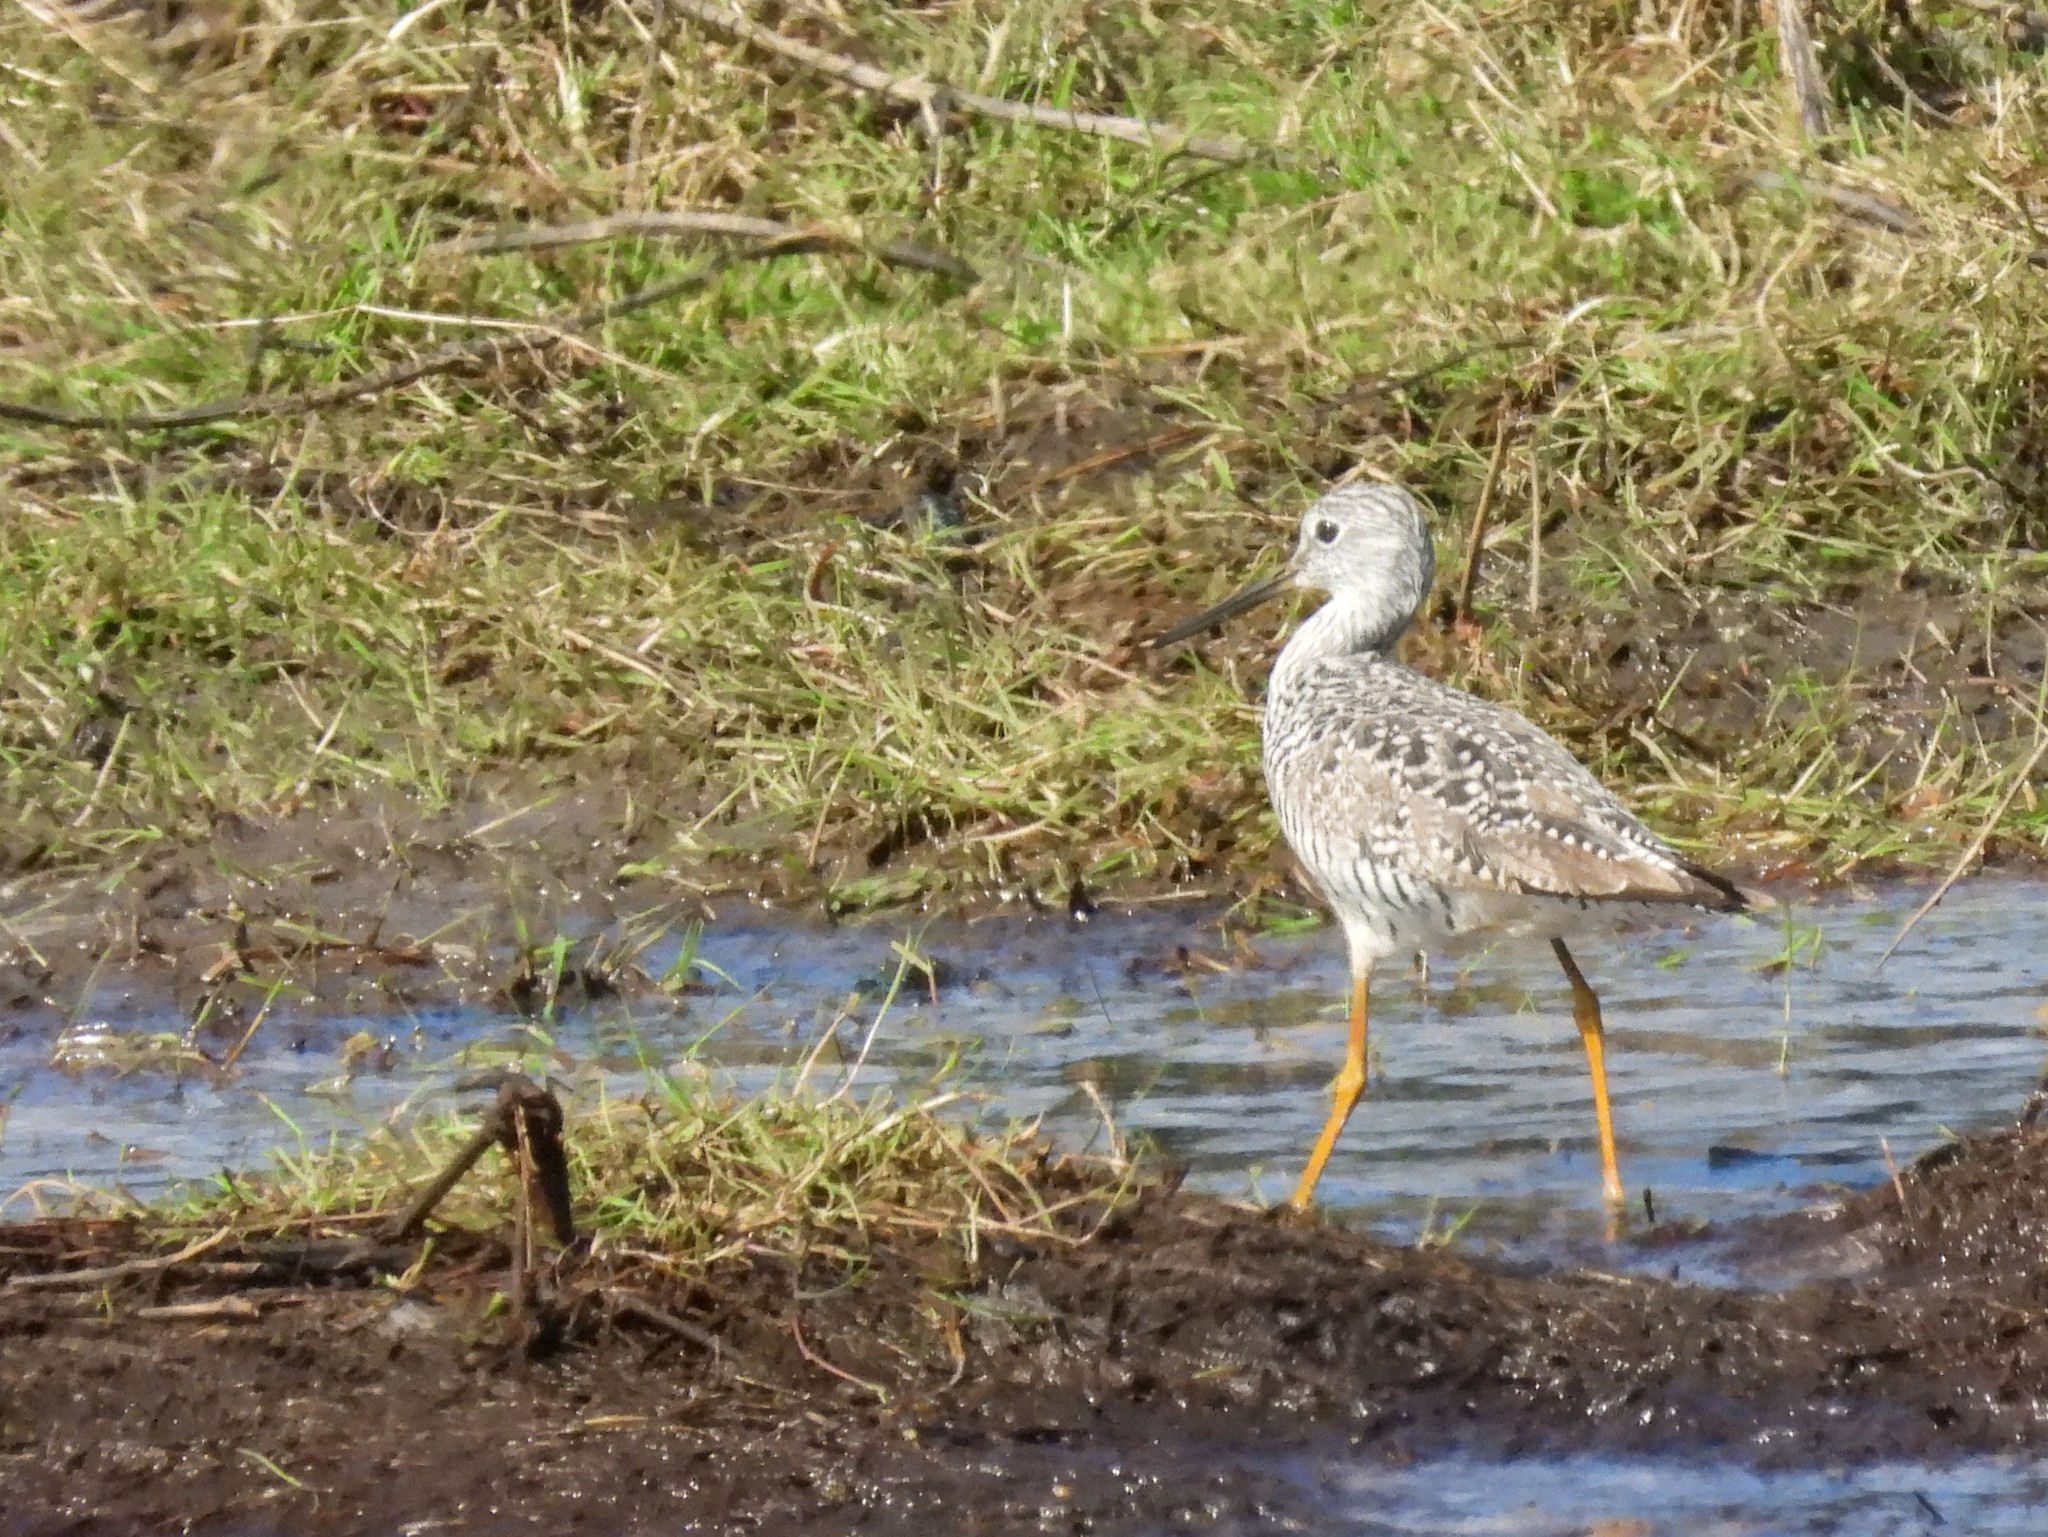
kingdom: Animalia
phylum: Chordata
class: Aves
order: Charadriiformes
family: Scolopacidae
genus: Tringa
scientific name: Tringa melanoleuca
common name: Greater yellowlegs
